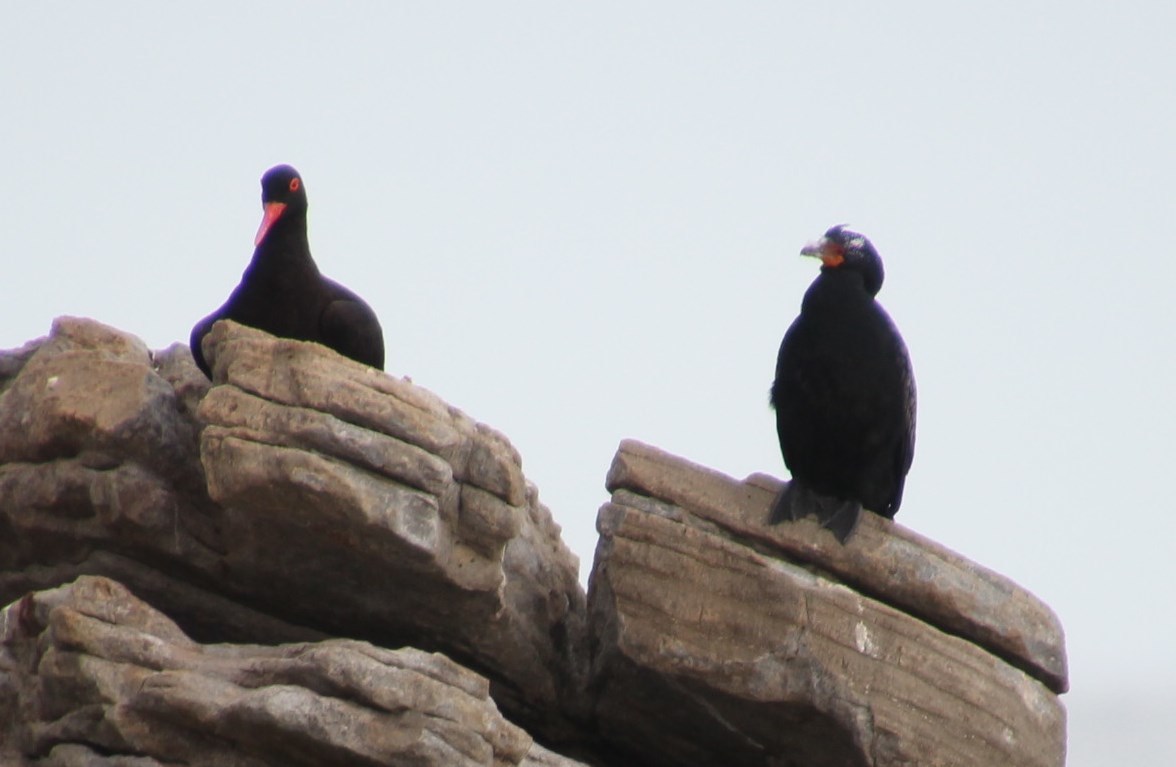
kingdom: Animalia
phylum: Chordata
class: Aves
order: Suliformes
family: Phalacrocoracidae
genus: Microcarbo
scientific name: Microcarbo coronatus
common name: Crowned cormorant
